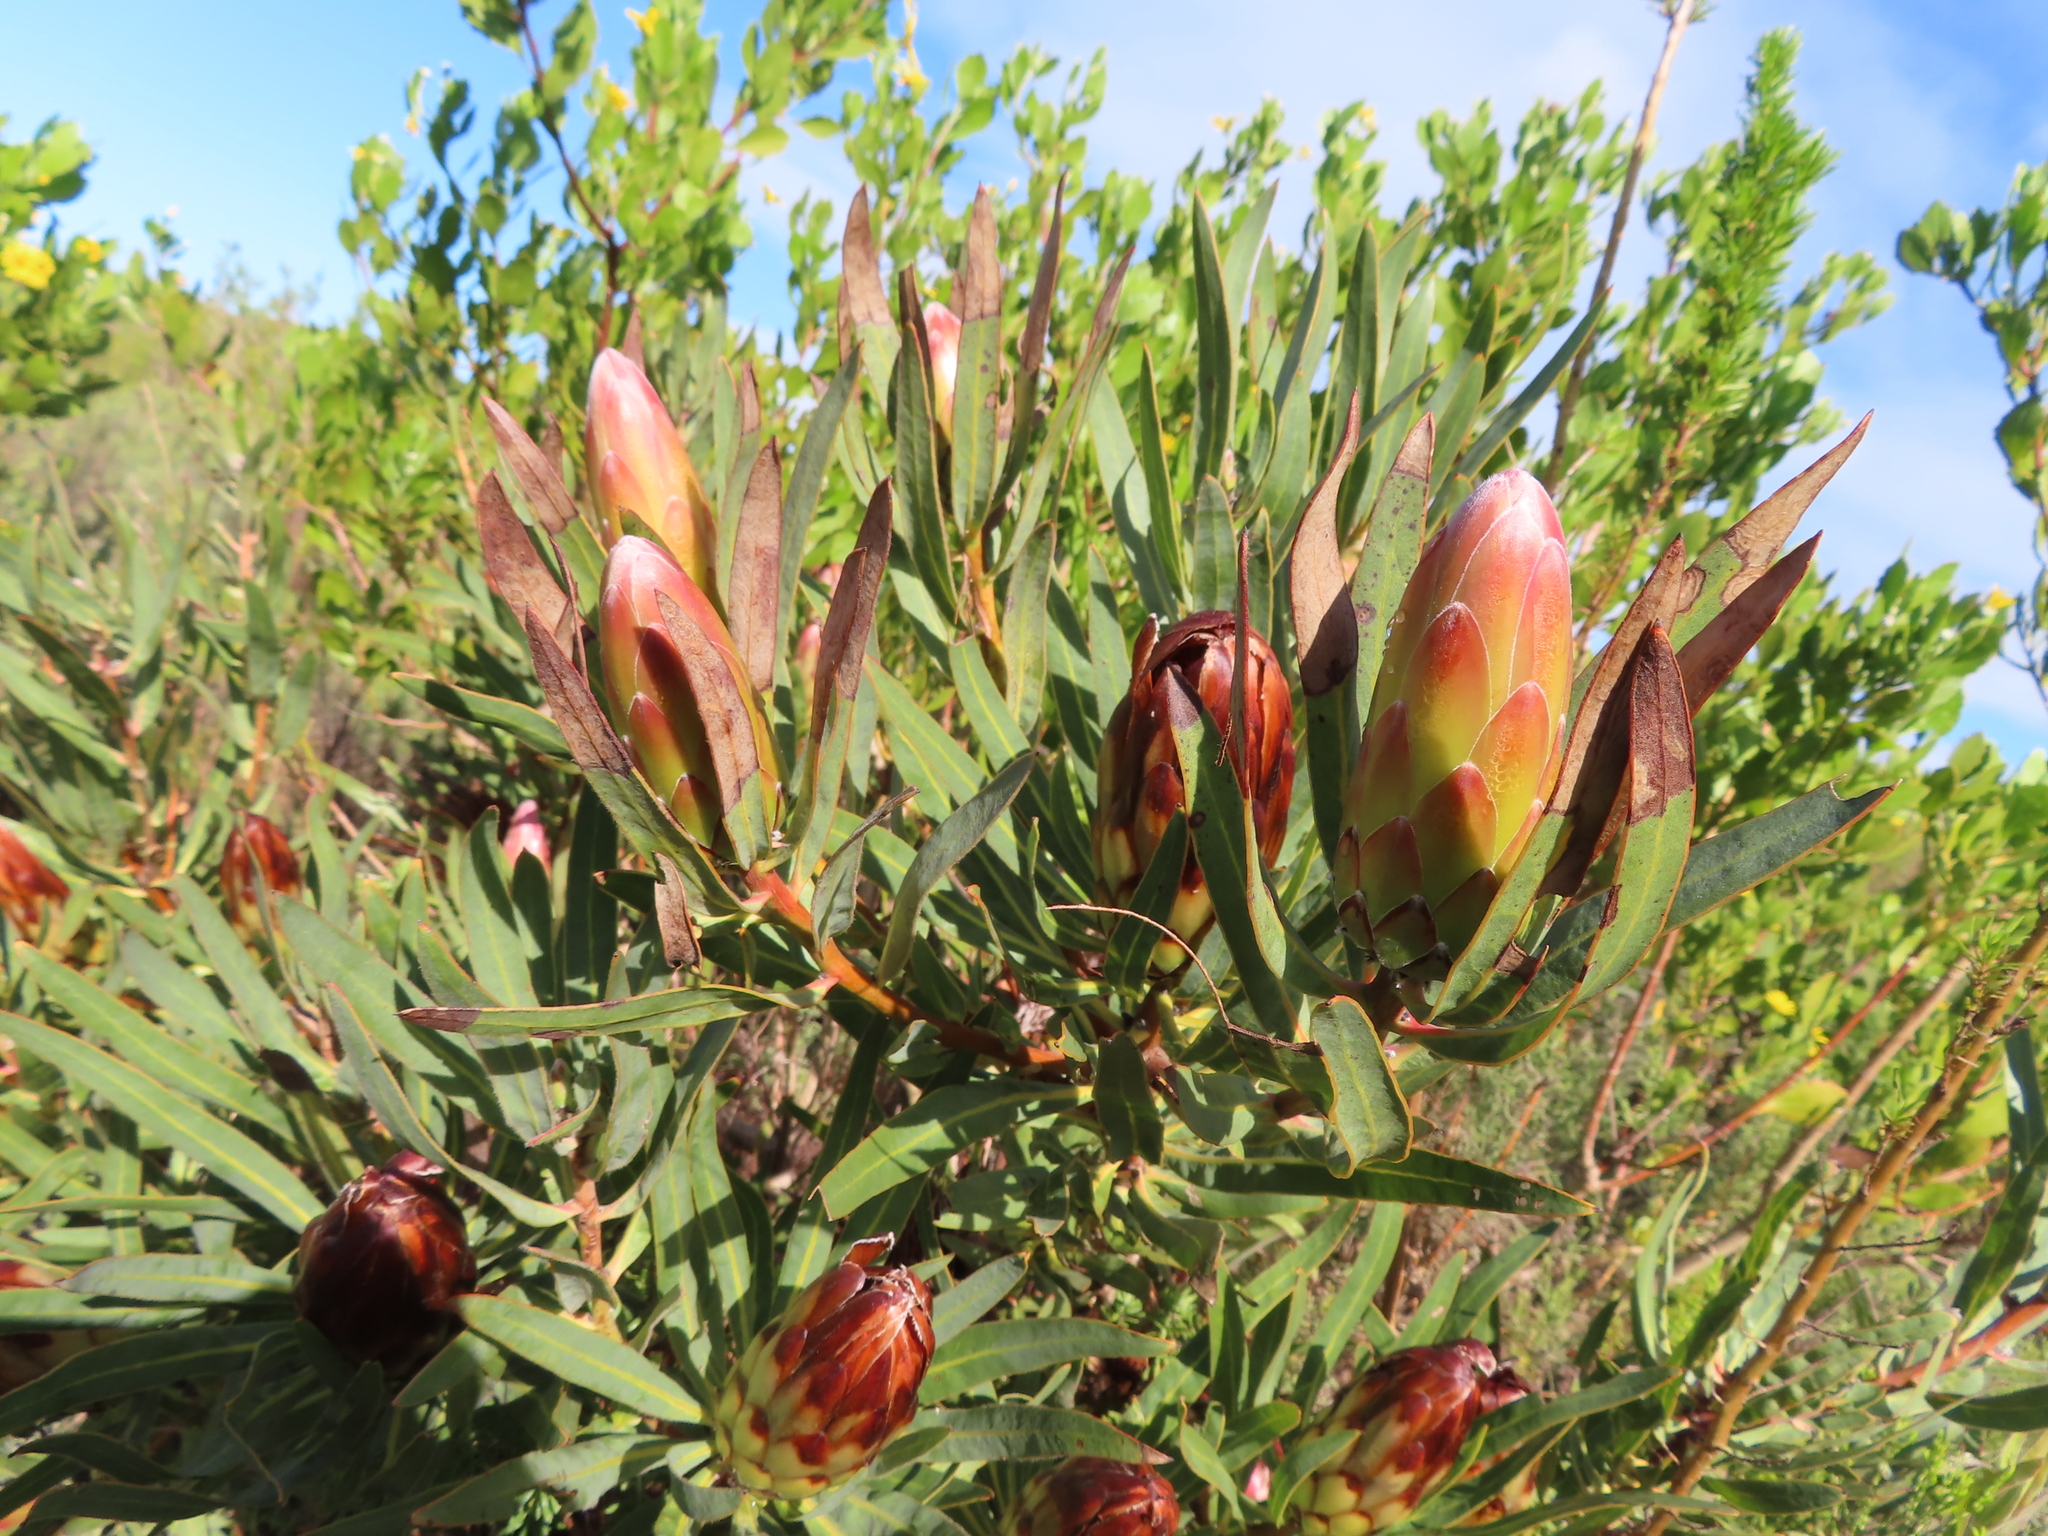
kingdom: Plantae
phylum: Tracheophyta
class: Magnoliopsida
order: Proteales
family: Proteaceae
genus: Protea
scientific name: Protea burchellii
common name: Burchell's sugarbush
